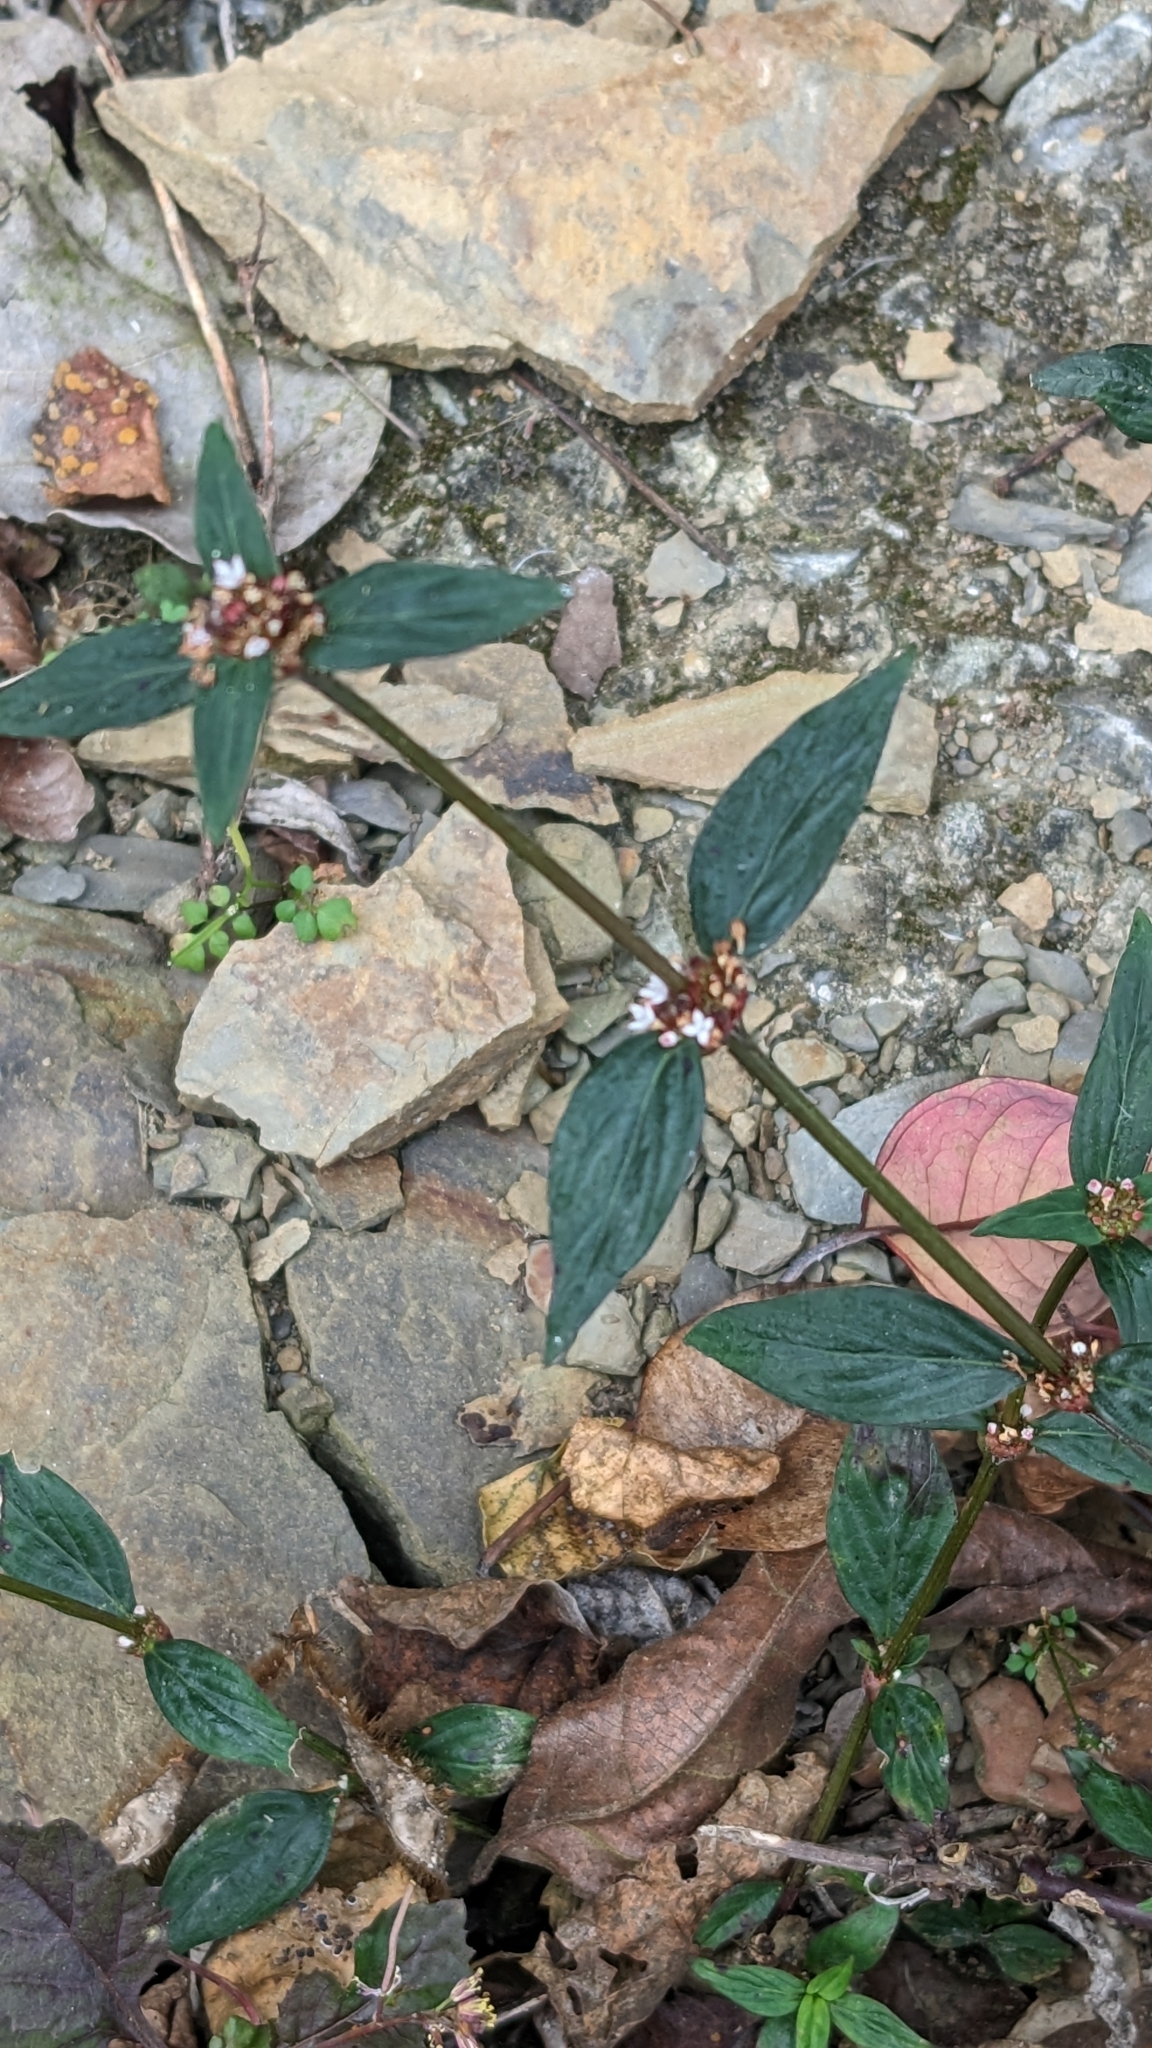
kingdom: Plantae
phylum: Tracheophyta
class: Magnoliopsida
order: Gentianales
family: Rubiaceae
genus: Spermacoce
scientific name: Spermacoce remota
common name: Woodland false buttonweed
